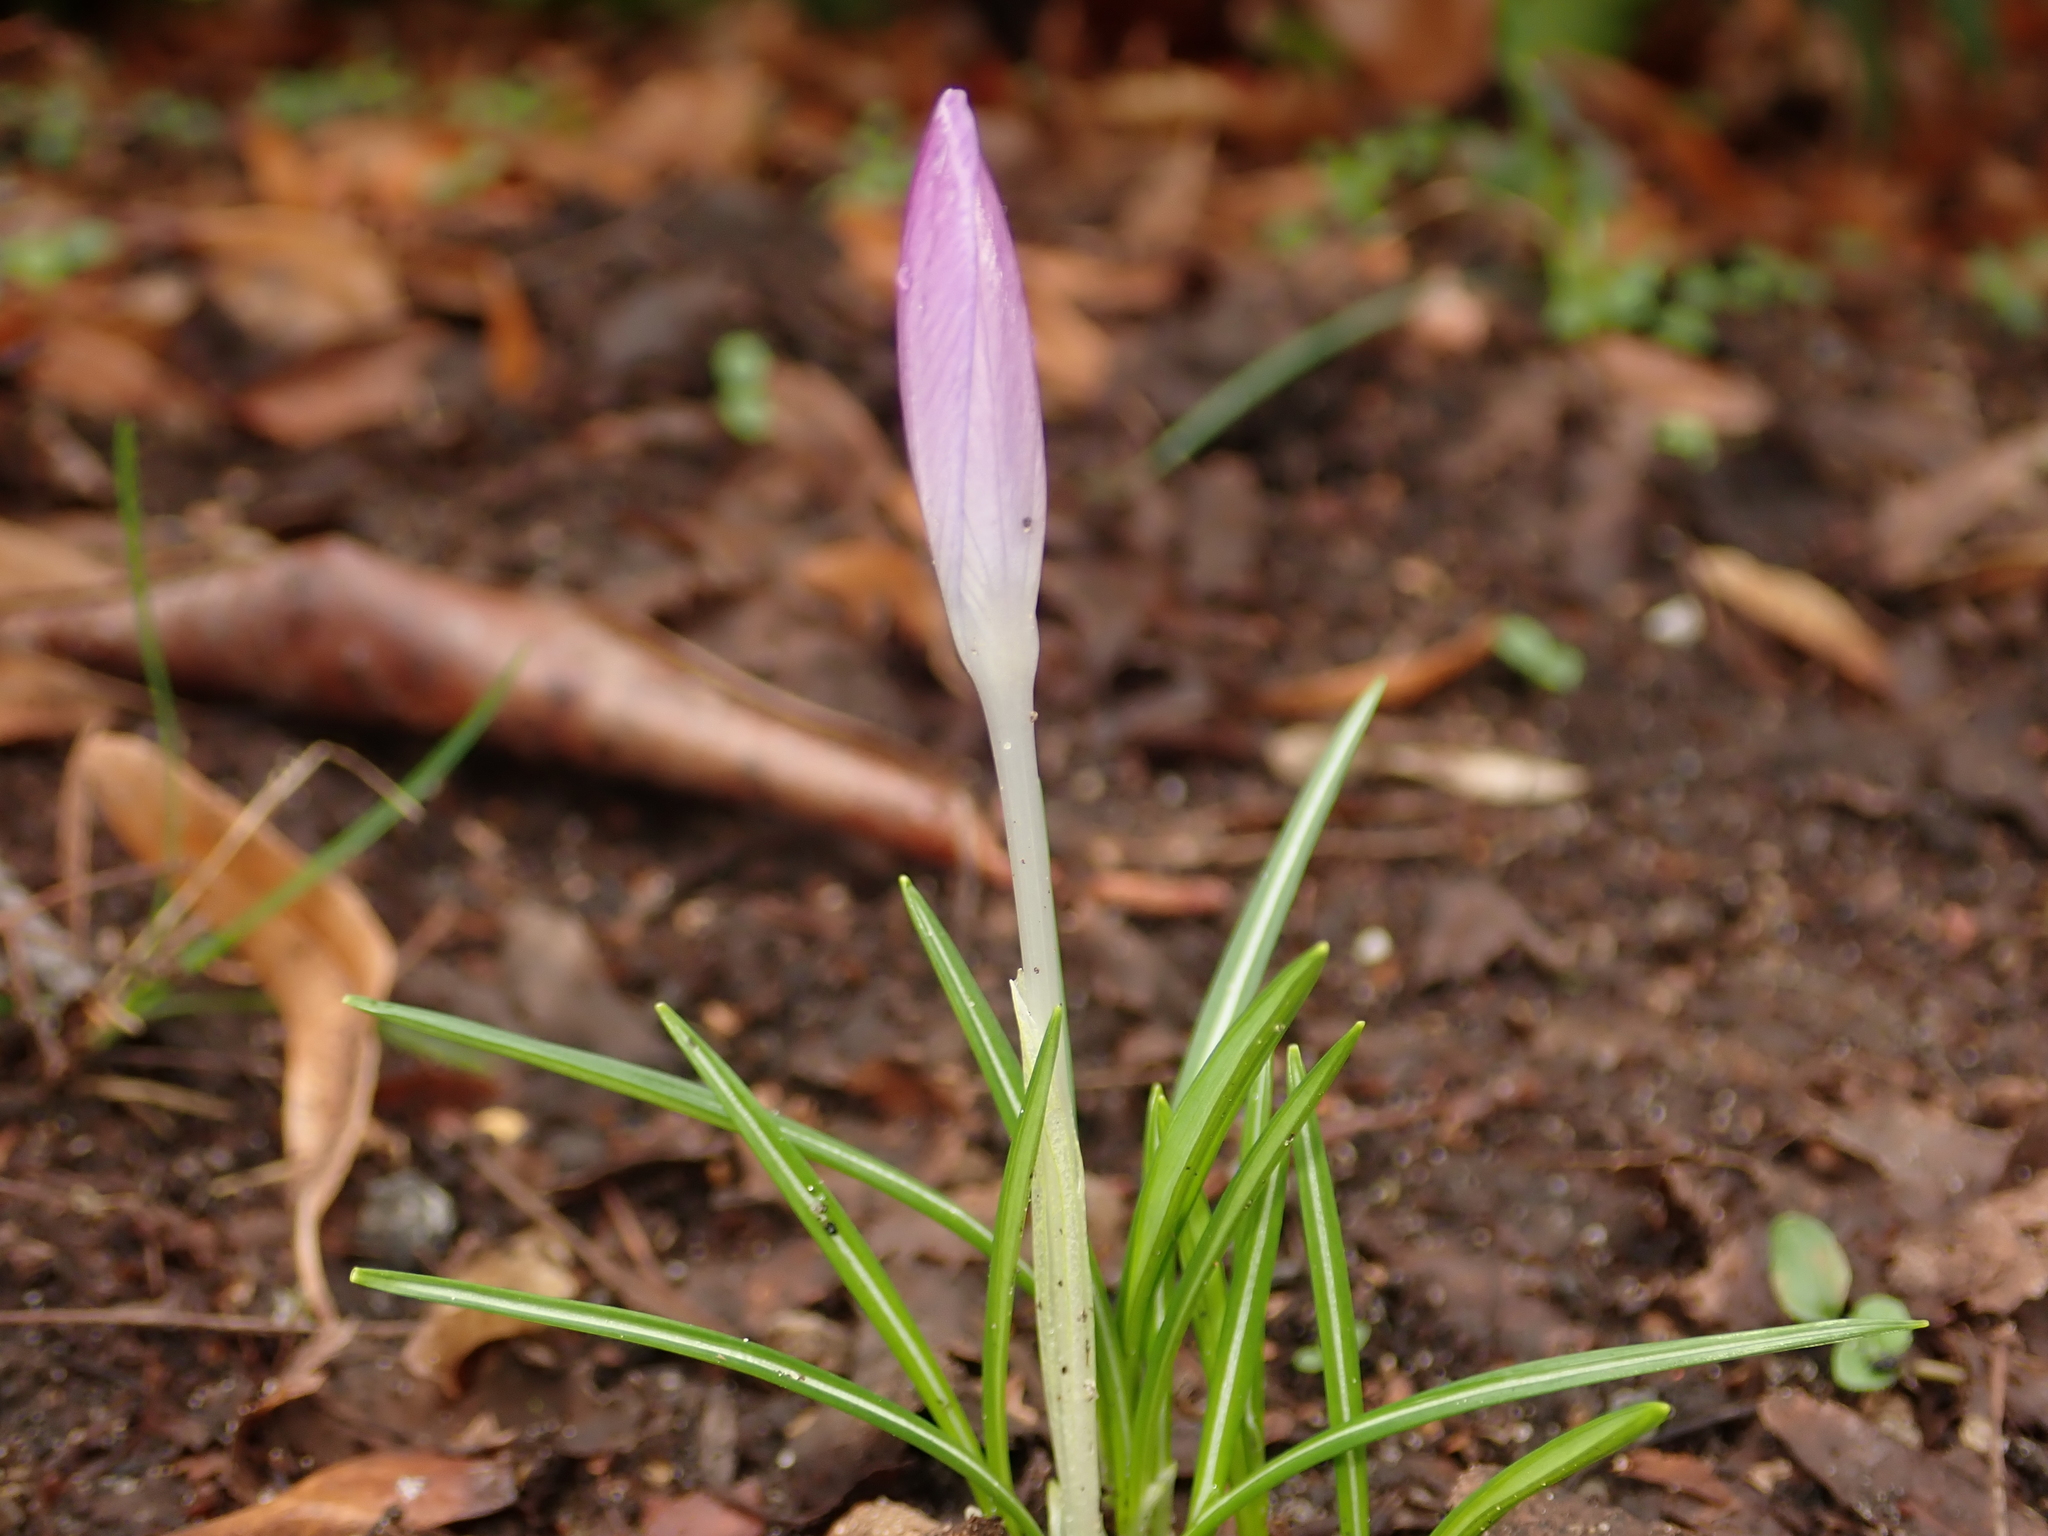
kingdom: Plantae
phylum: Tracheophyta
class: Liliopsida
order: Asparagales
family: Iridaceae
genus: Crocus
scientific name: Crocus tommasinianus
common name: Early crocus
